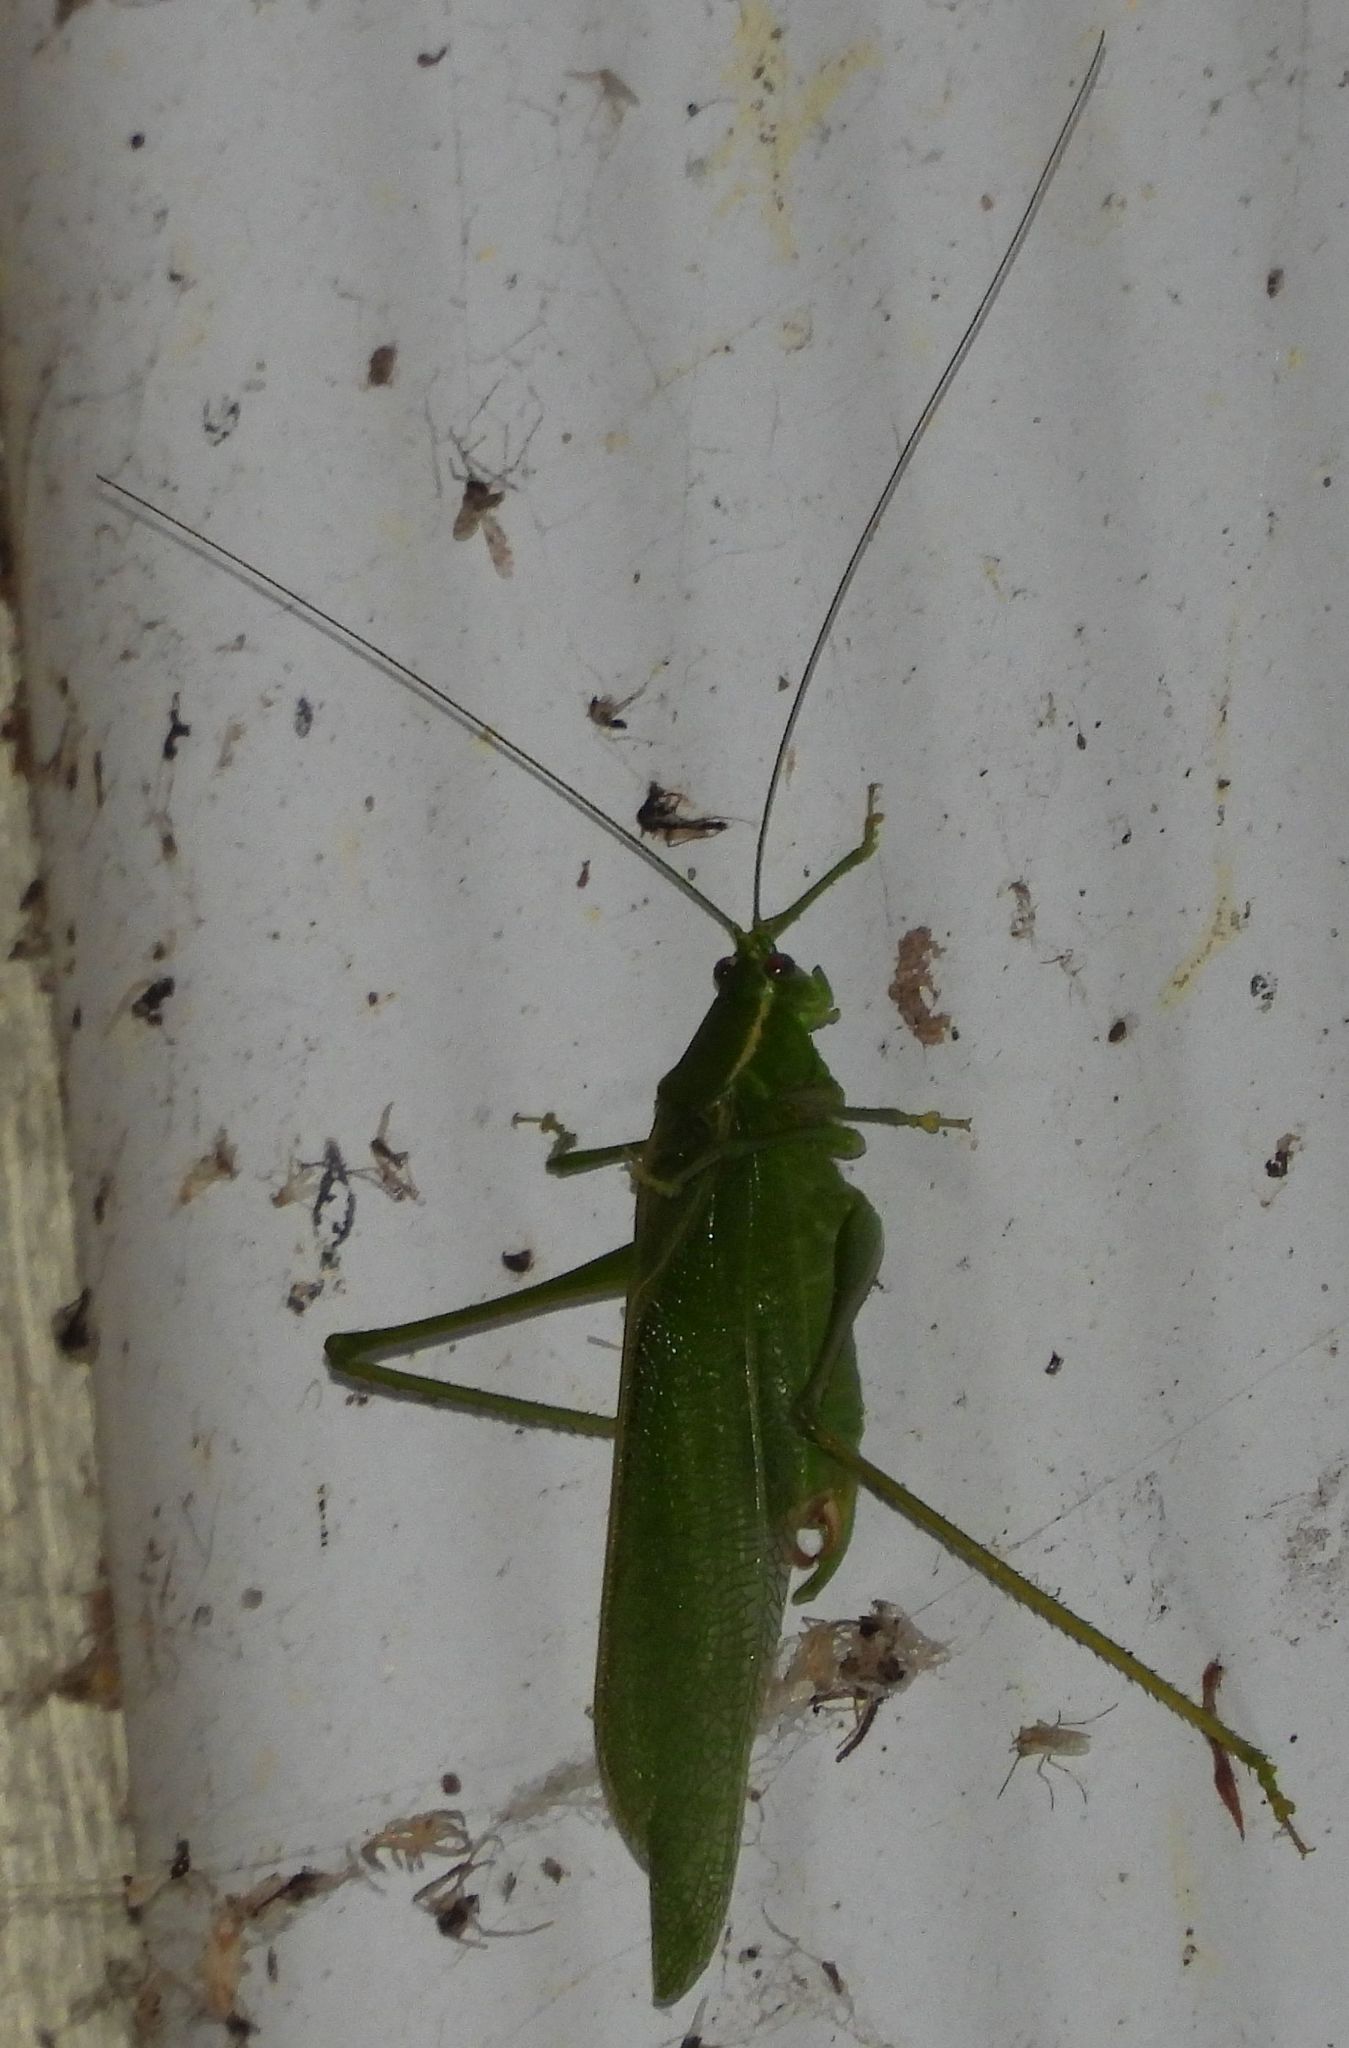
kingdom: Animalia
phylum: Arthropoda
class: Insecta
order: Orthoptera
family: Tettigoniidae
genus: Scudderia
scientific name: Scudderia septentrionalis
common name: Northern bush-katydid
